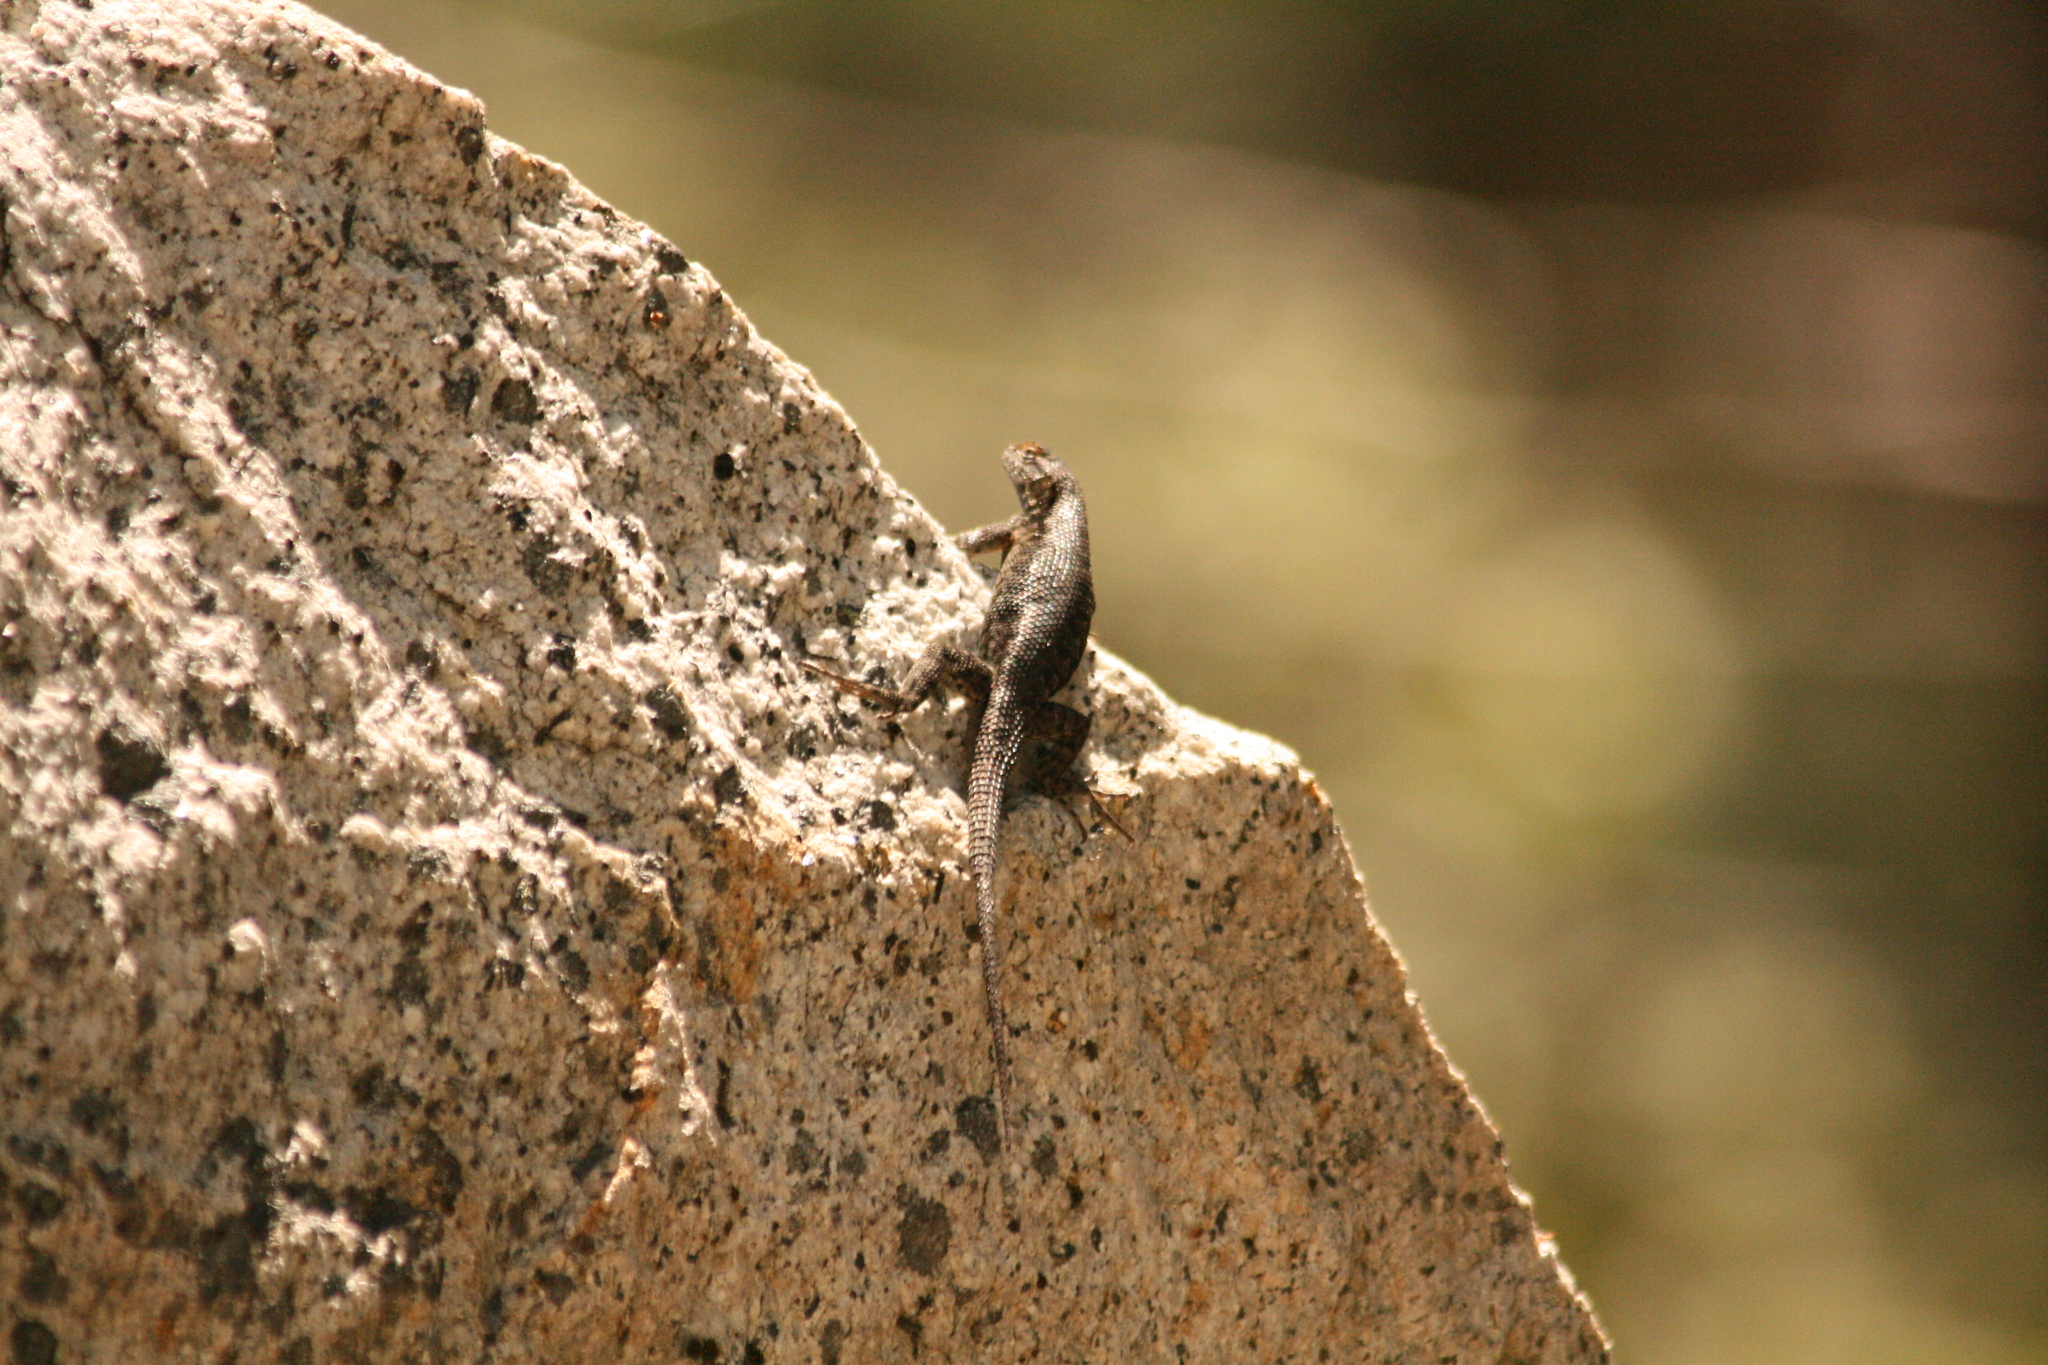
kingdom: Animalia
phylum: Chordata
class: Squamata
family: Phrynosomatidae
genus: Sceloporus
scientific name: Sceloporus graciosus
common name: Sagebrush lizard
